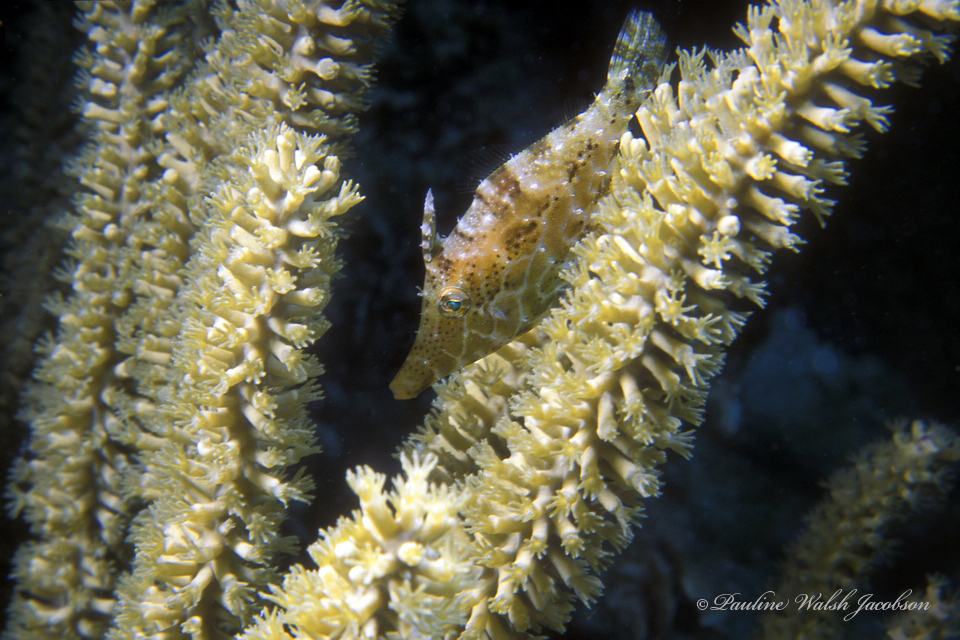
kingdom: Animalia
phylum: Chordata
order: Tetraodontiformes
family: Monacanthidae
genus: Monacanthus
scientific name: Monacanthus tuckeri
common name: Slender filefish
